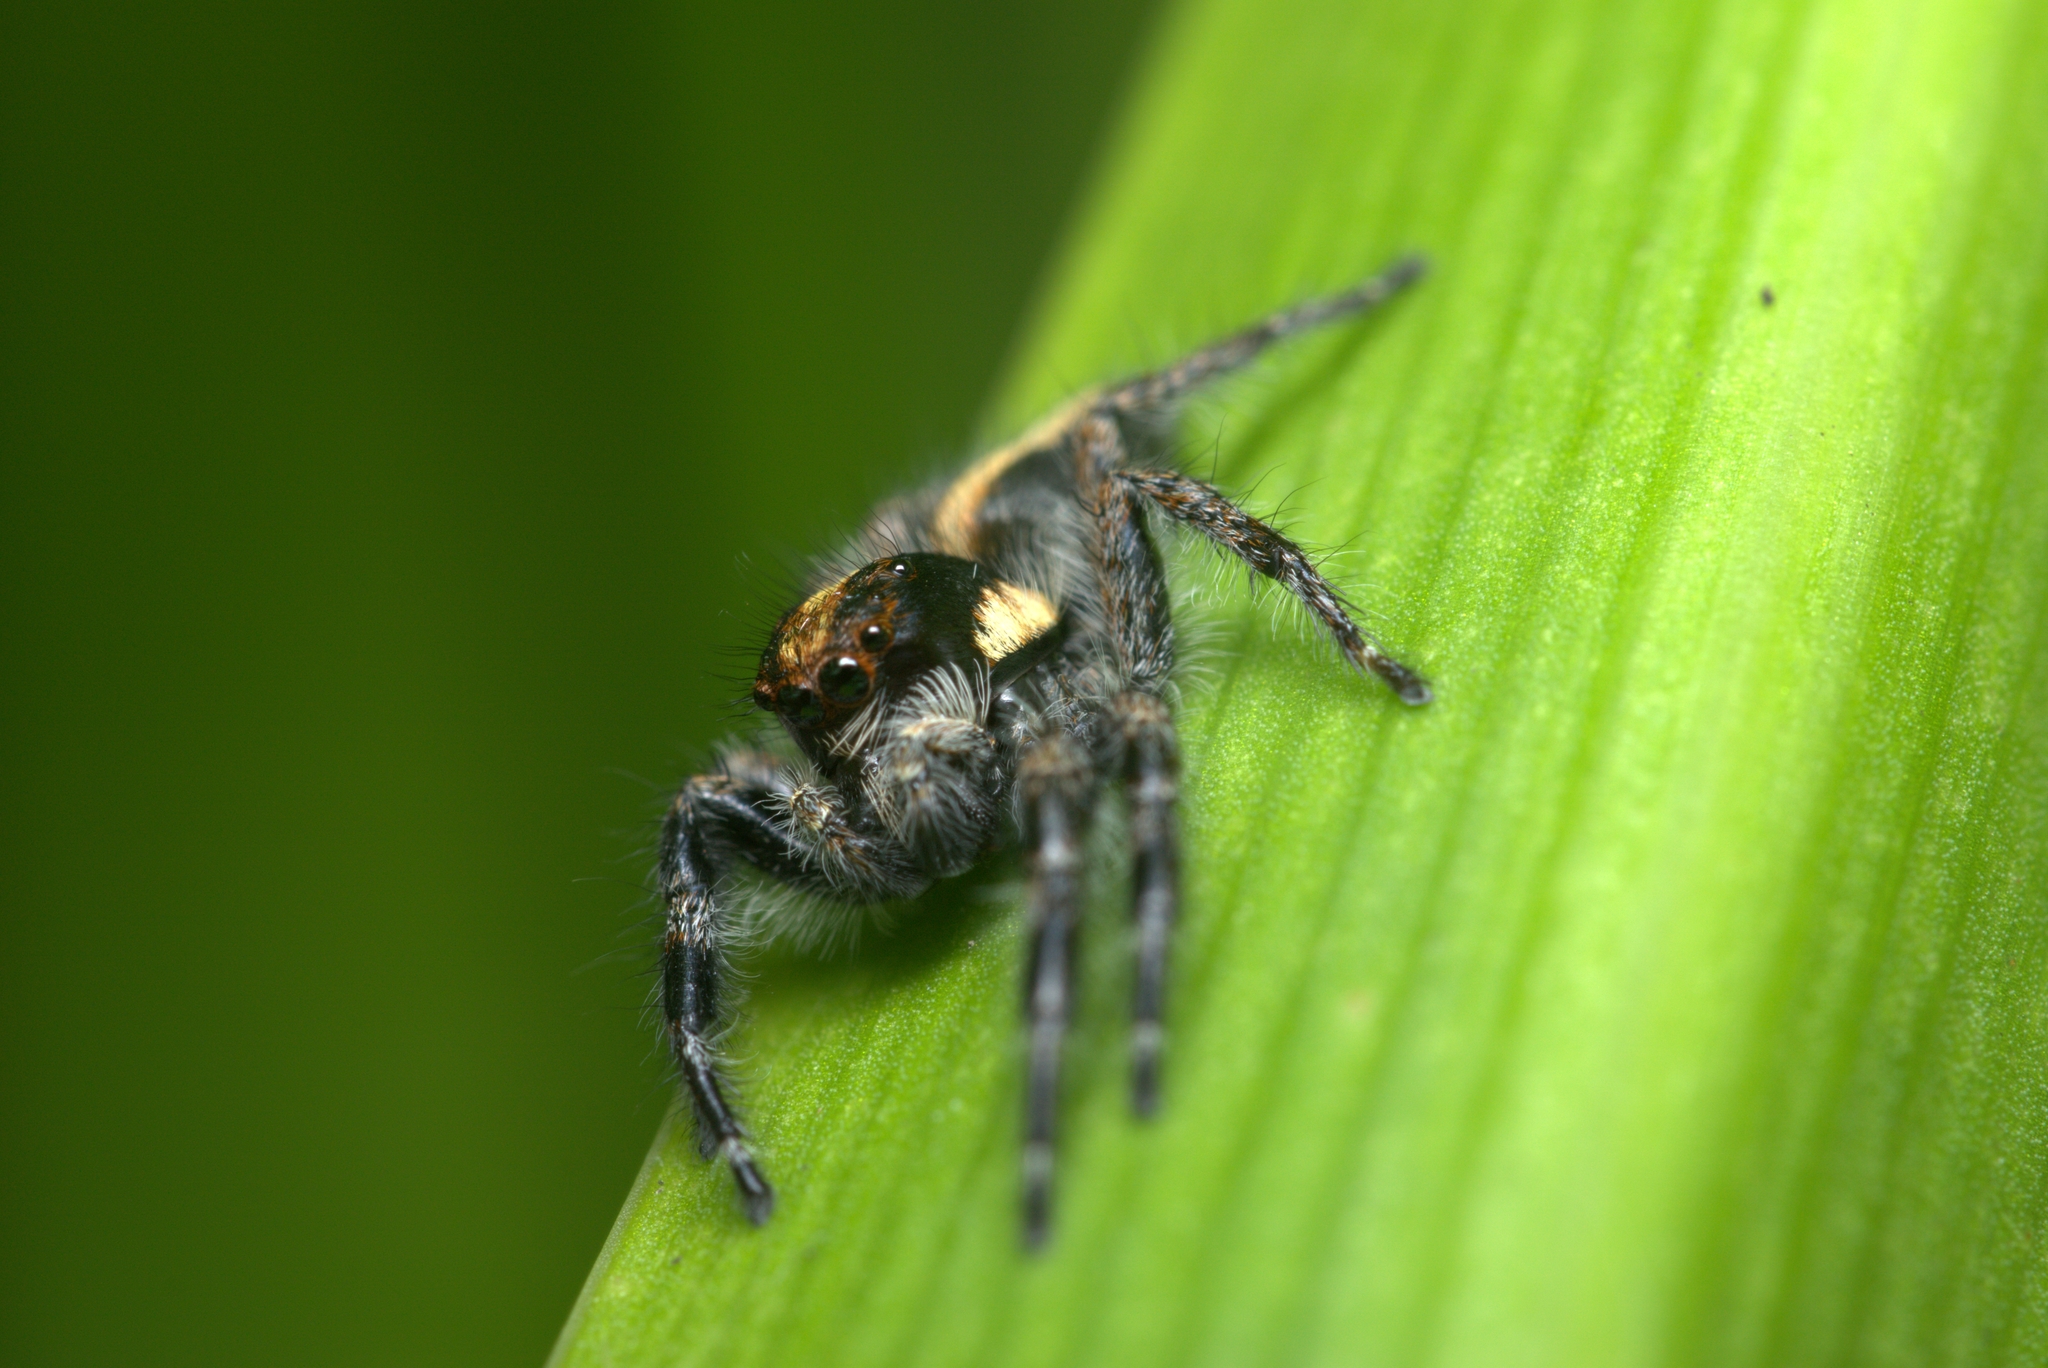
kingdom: Animalia
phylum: Arthropoda
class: Arachnida
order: Araneae
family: Salticidae
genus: Megafreya
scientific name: Megafreya sutrix
